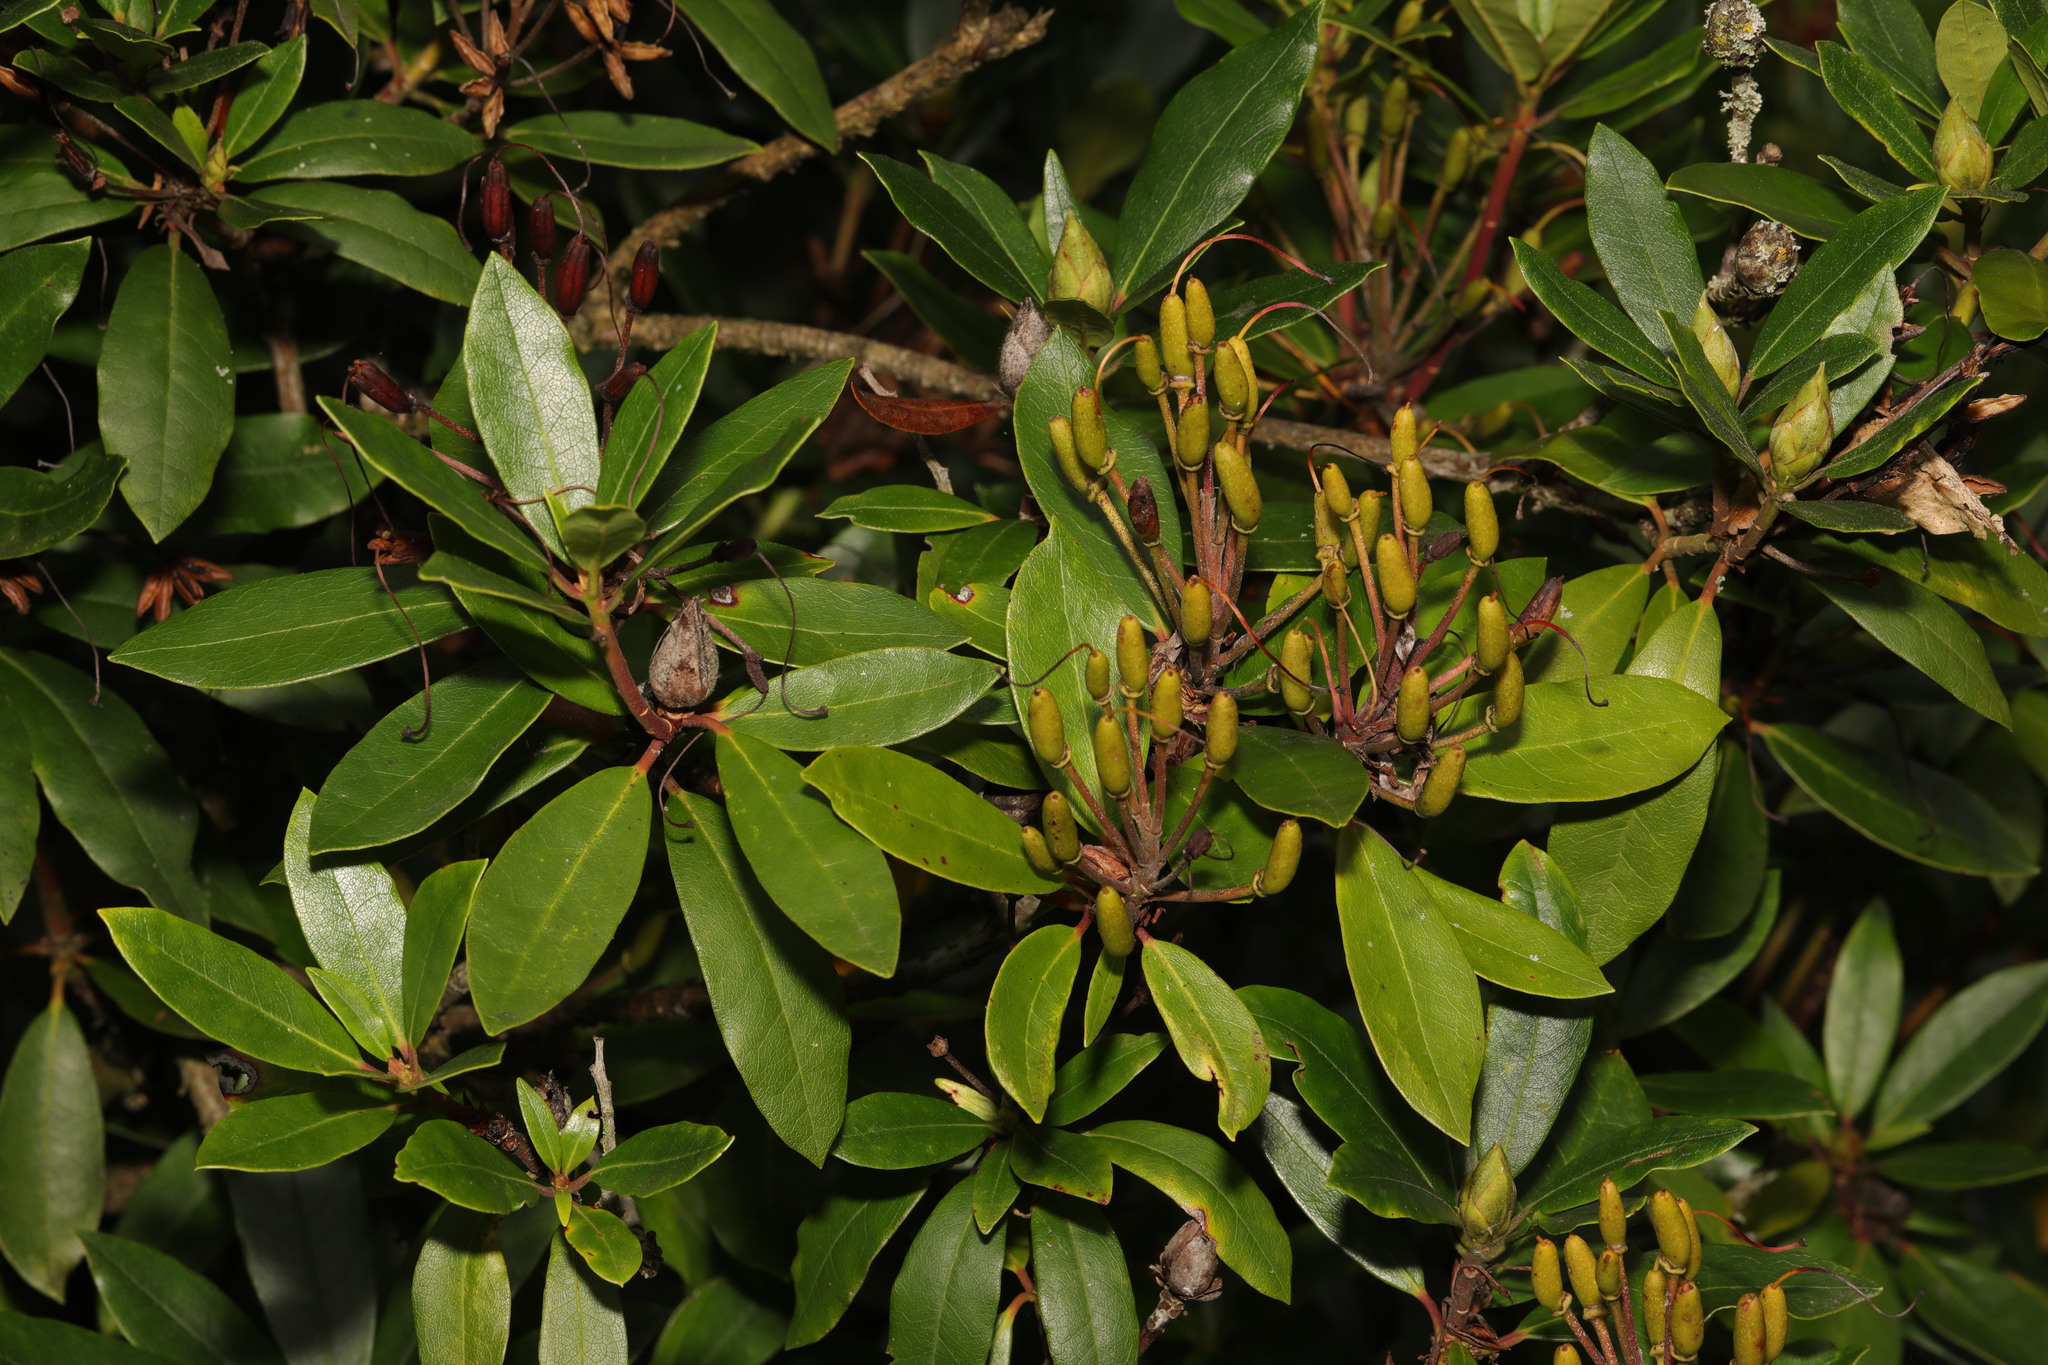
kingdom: Plantae
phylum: Tracheophyta
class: Magnoliopsida
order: Ericales
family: Ericaceae
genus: Rhododendron
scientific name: Rhododendron ponticum
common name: Rhododendron
